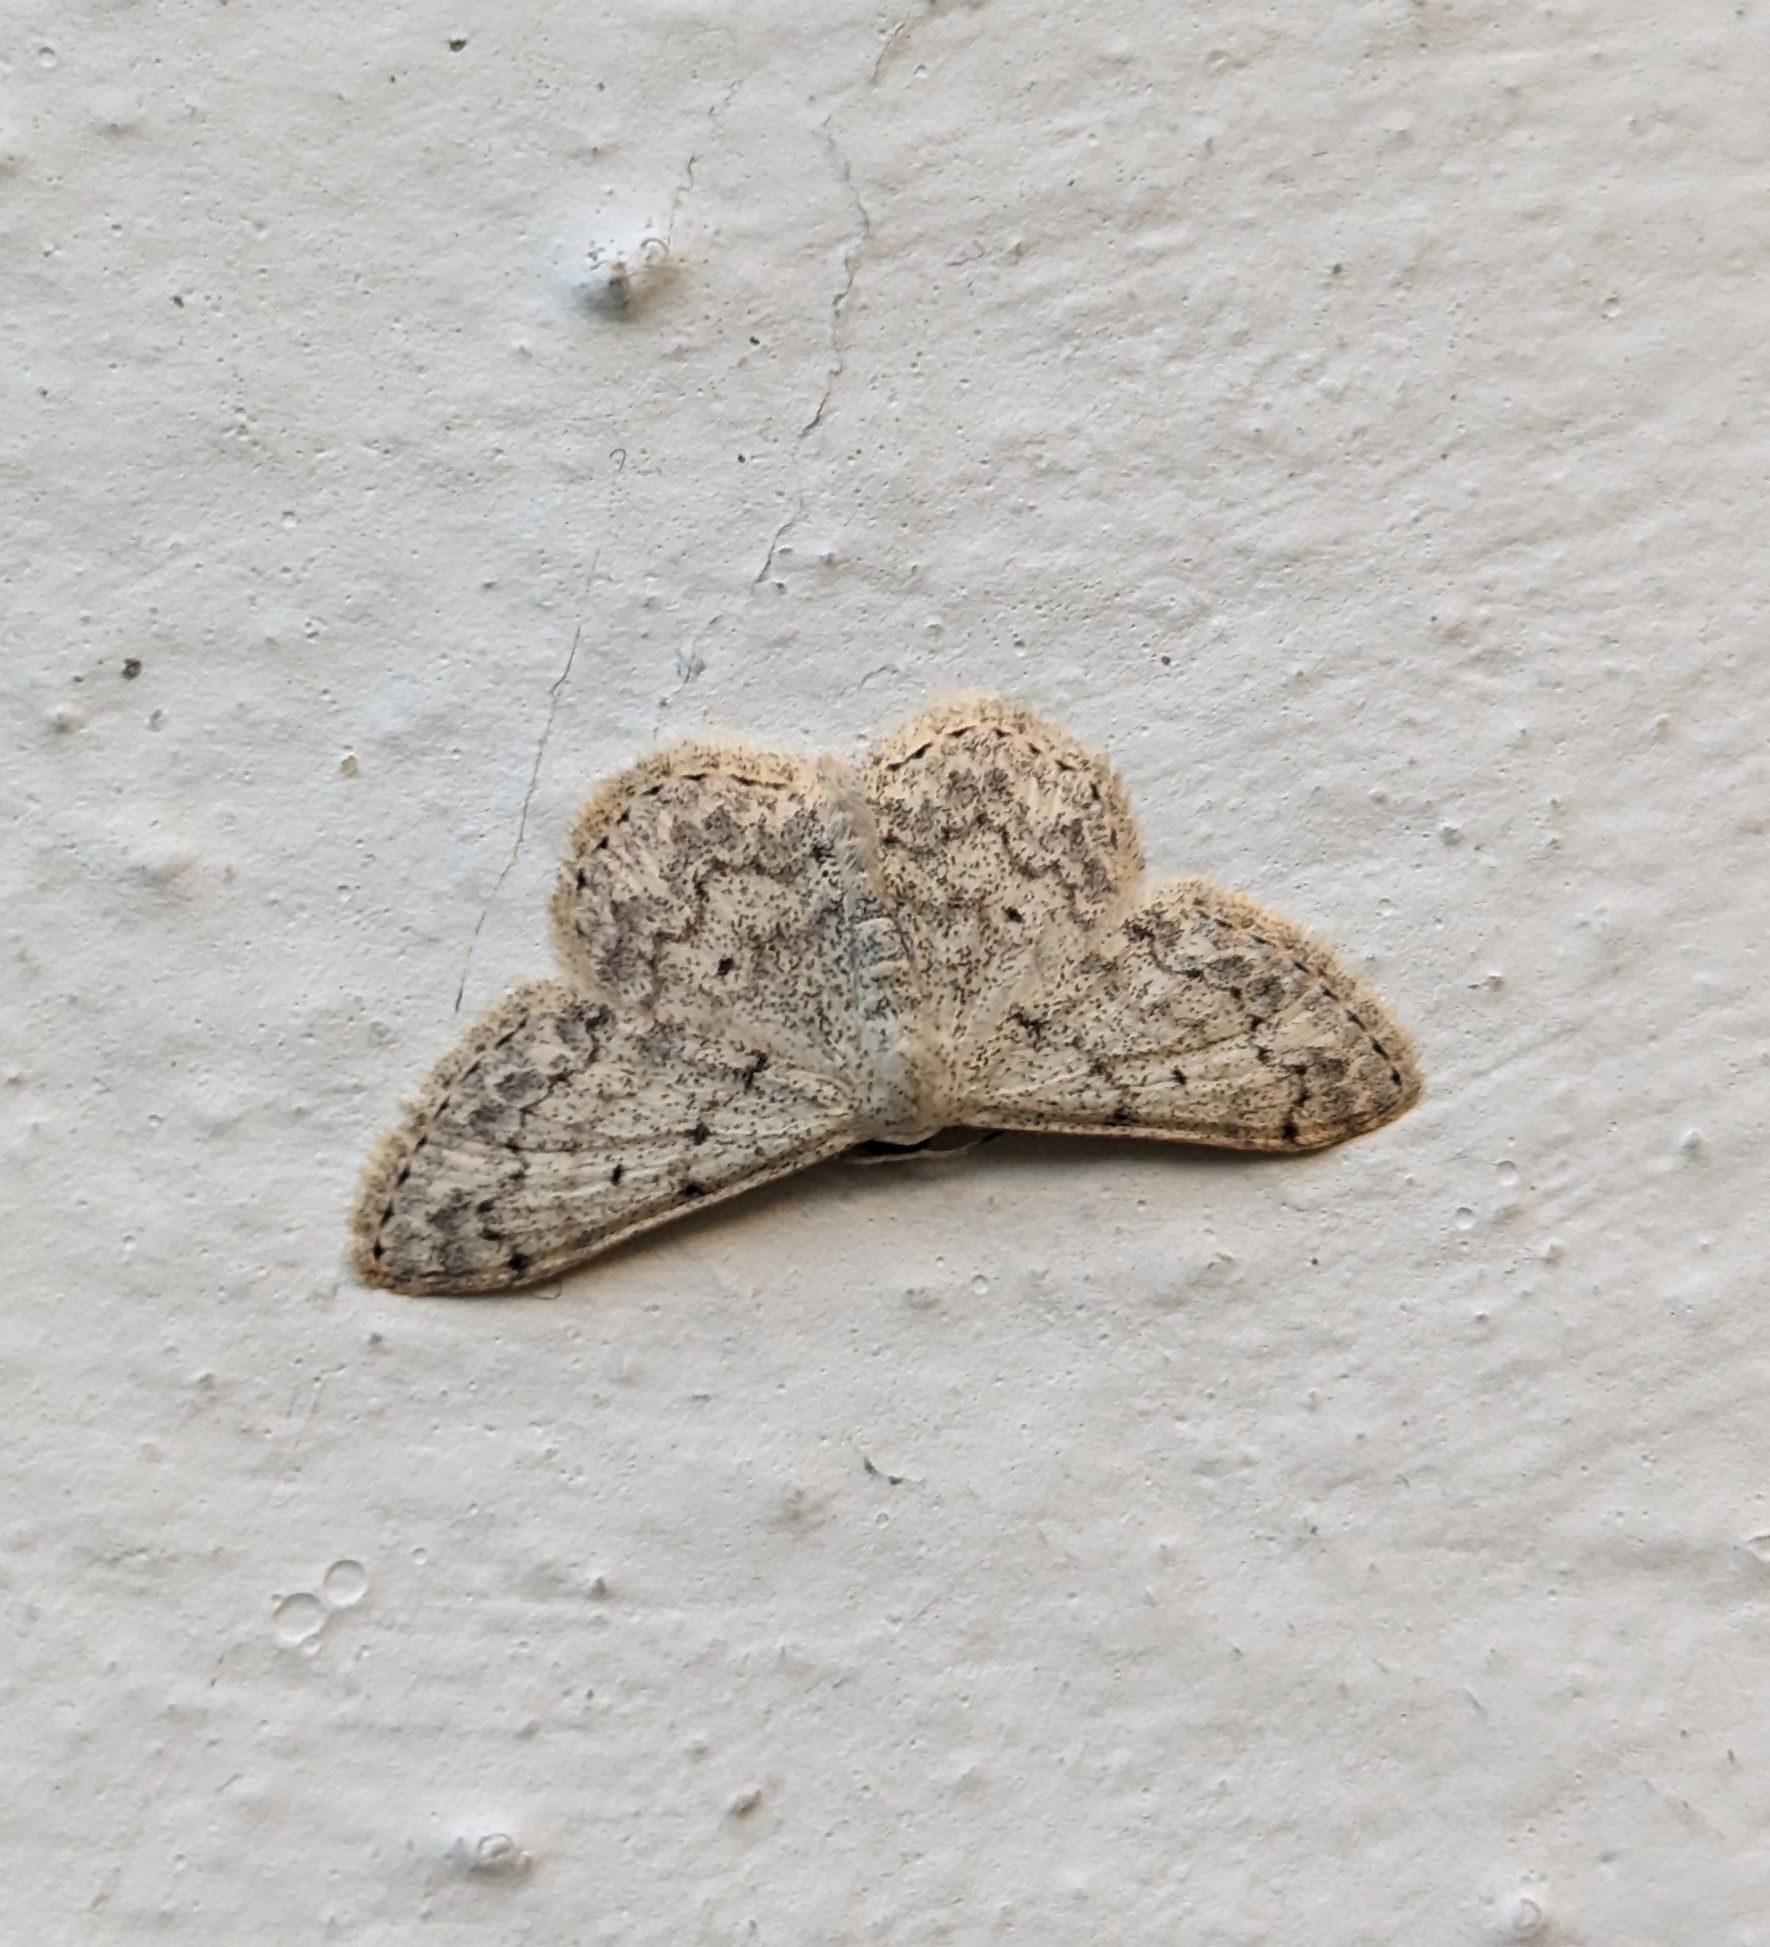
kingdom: Animalia
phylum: Arthropoda
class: Insecta
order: Lepidoptera
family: Geometridae
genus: Scopula
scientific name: Scopula marginepunctata
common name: Mullein wave
